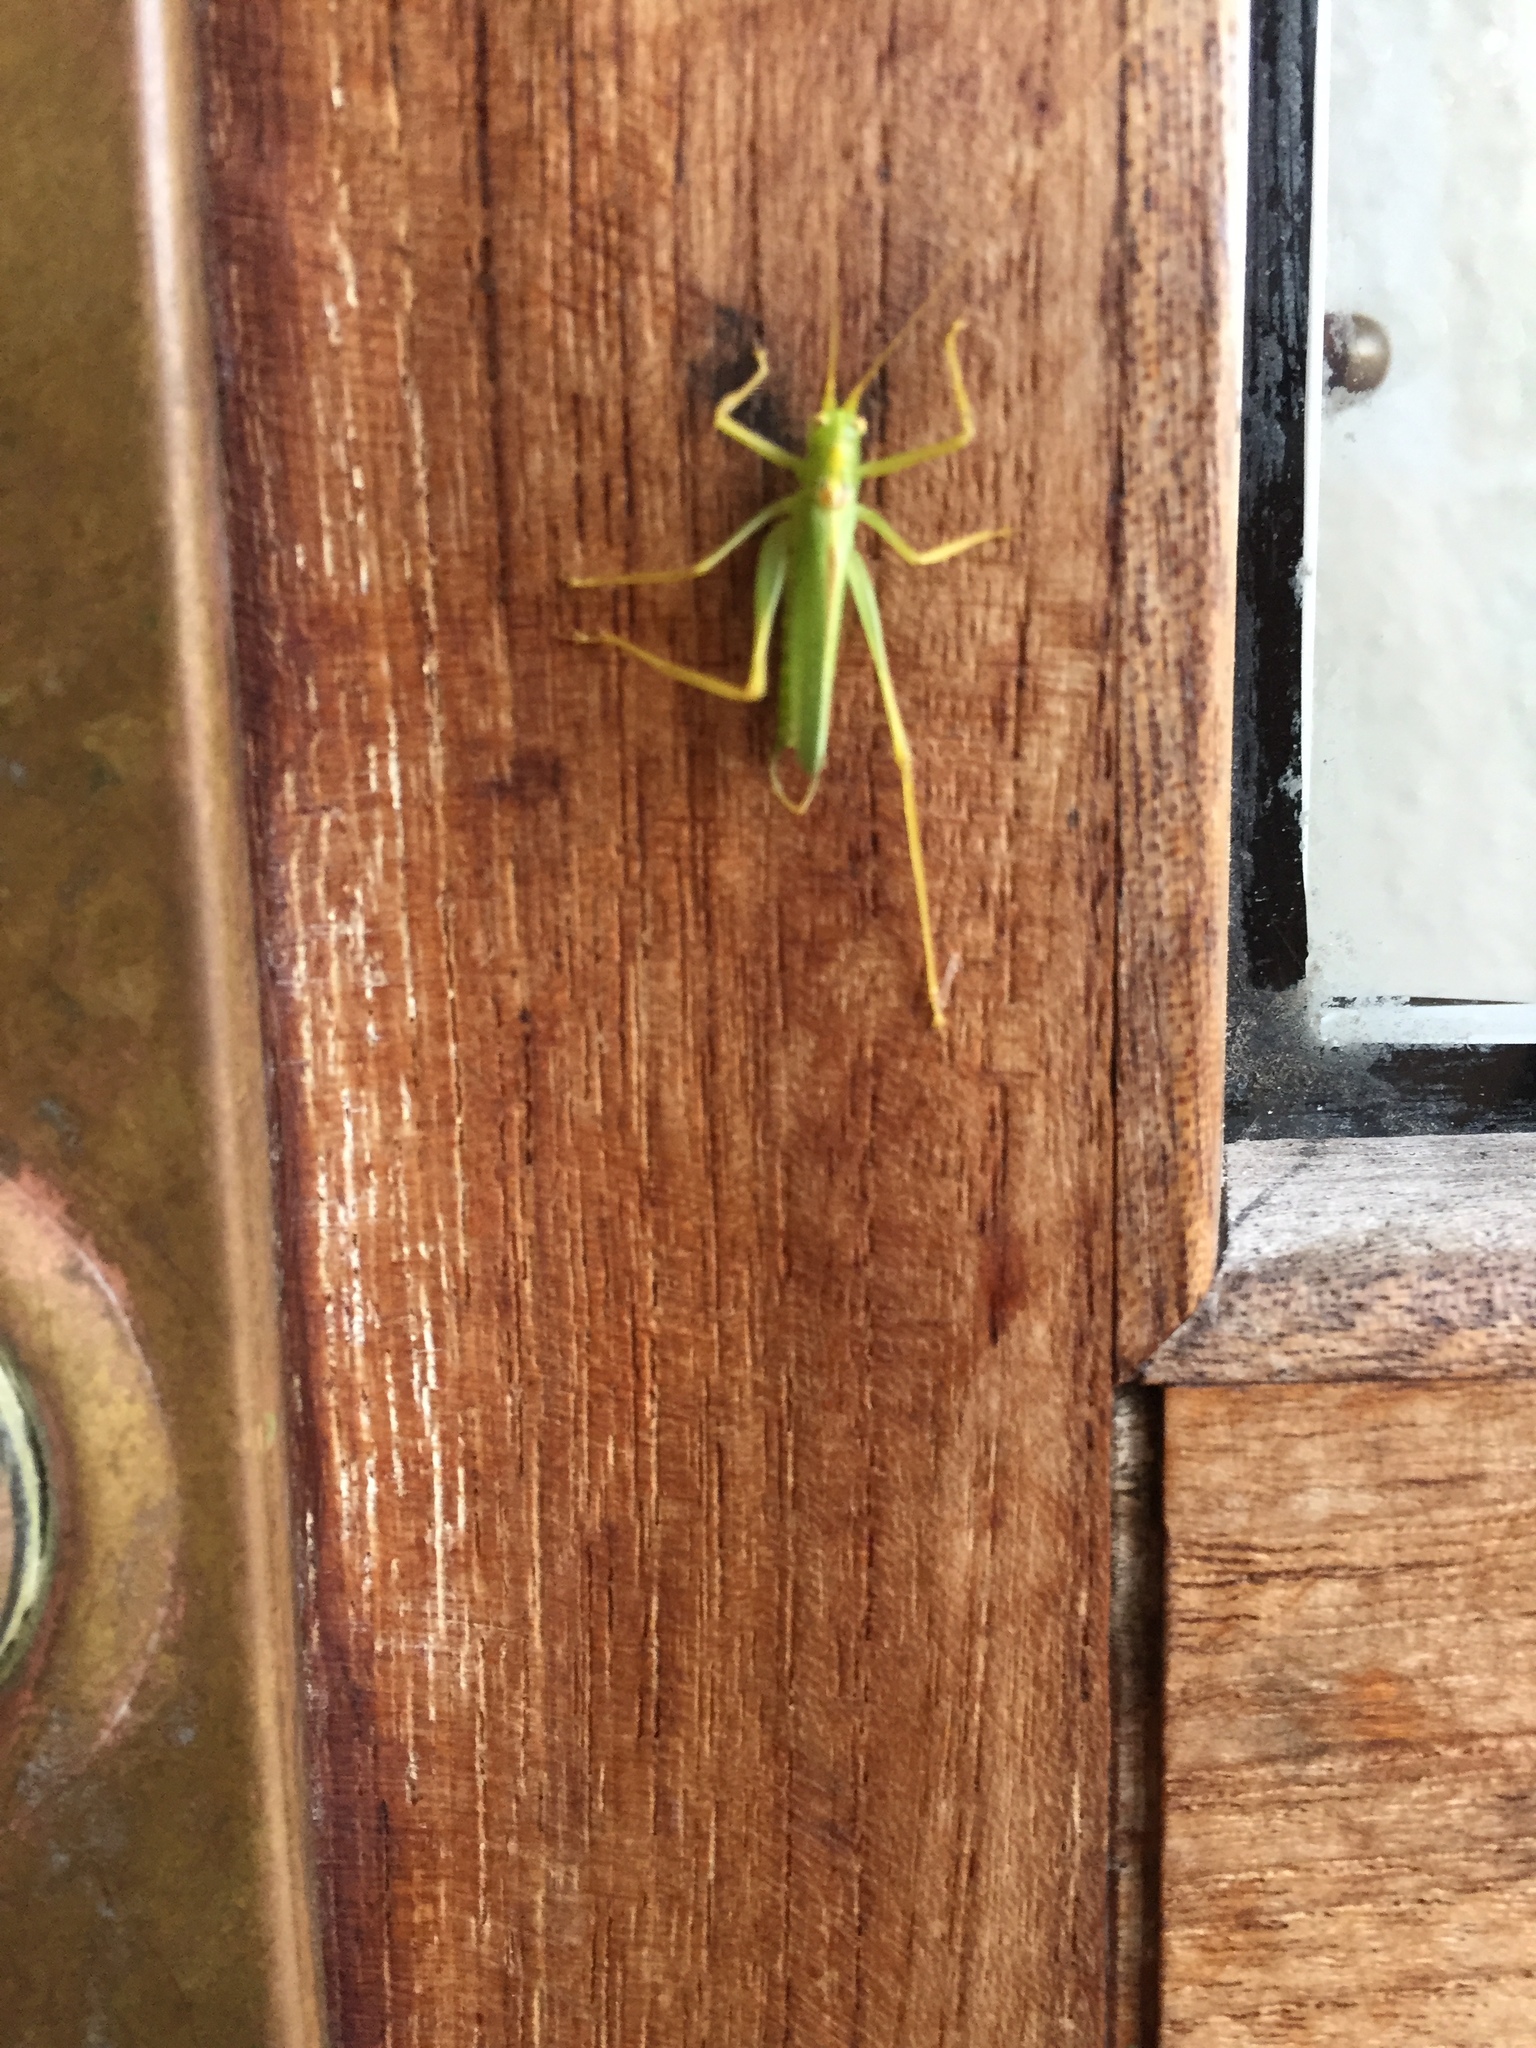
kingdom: Animalia
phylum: Arthropoda
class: Insecta
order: Orthoptera
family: Tettigoniidae
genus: Meconema
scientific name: Meconema thalassinum
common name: Oak bush-cricket
